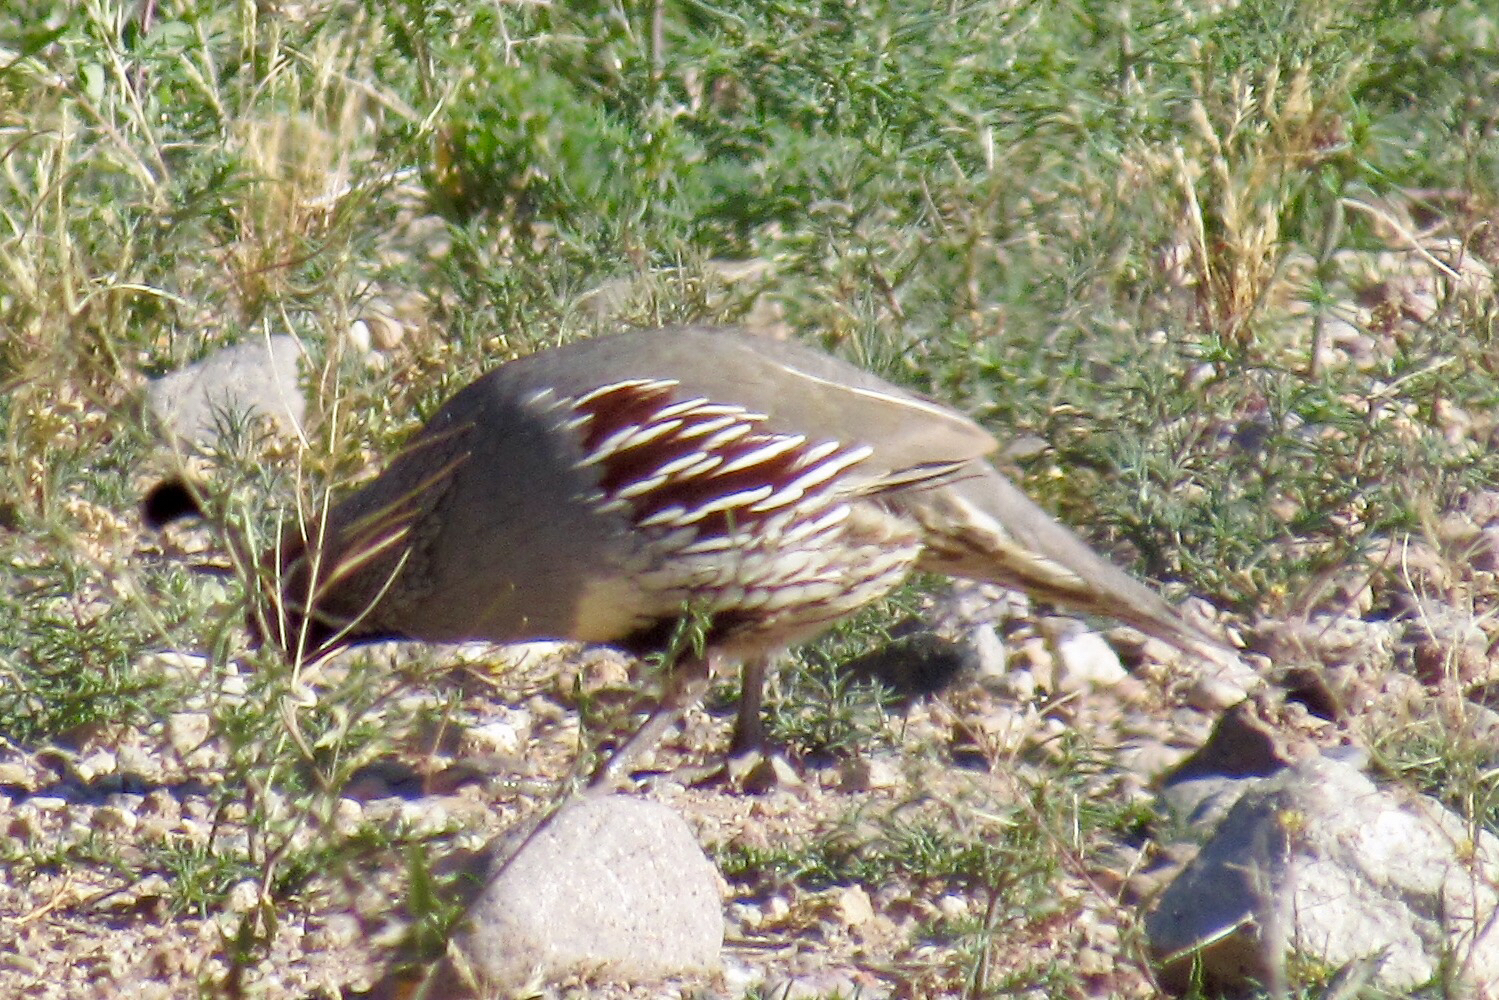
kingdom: Animalia
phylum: Chordata
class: Aves
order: Galliformes
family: Odontophoridae
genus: Callipepla
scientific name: Callipepla gambelii
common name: Gambel's quail
